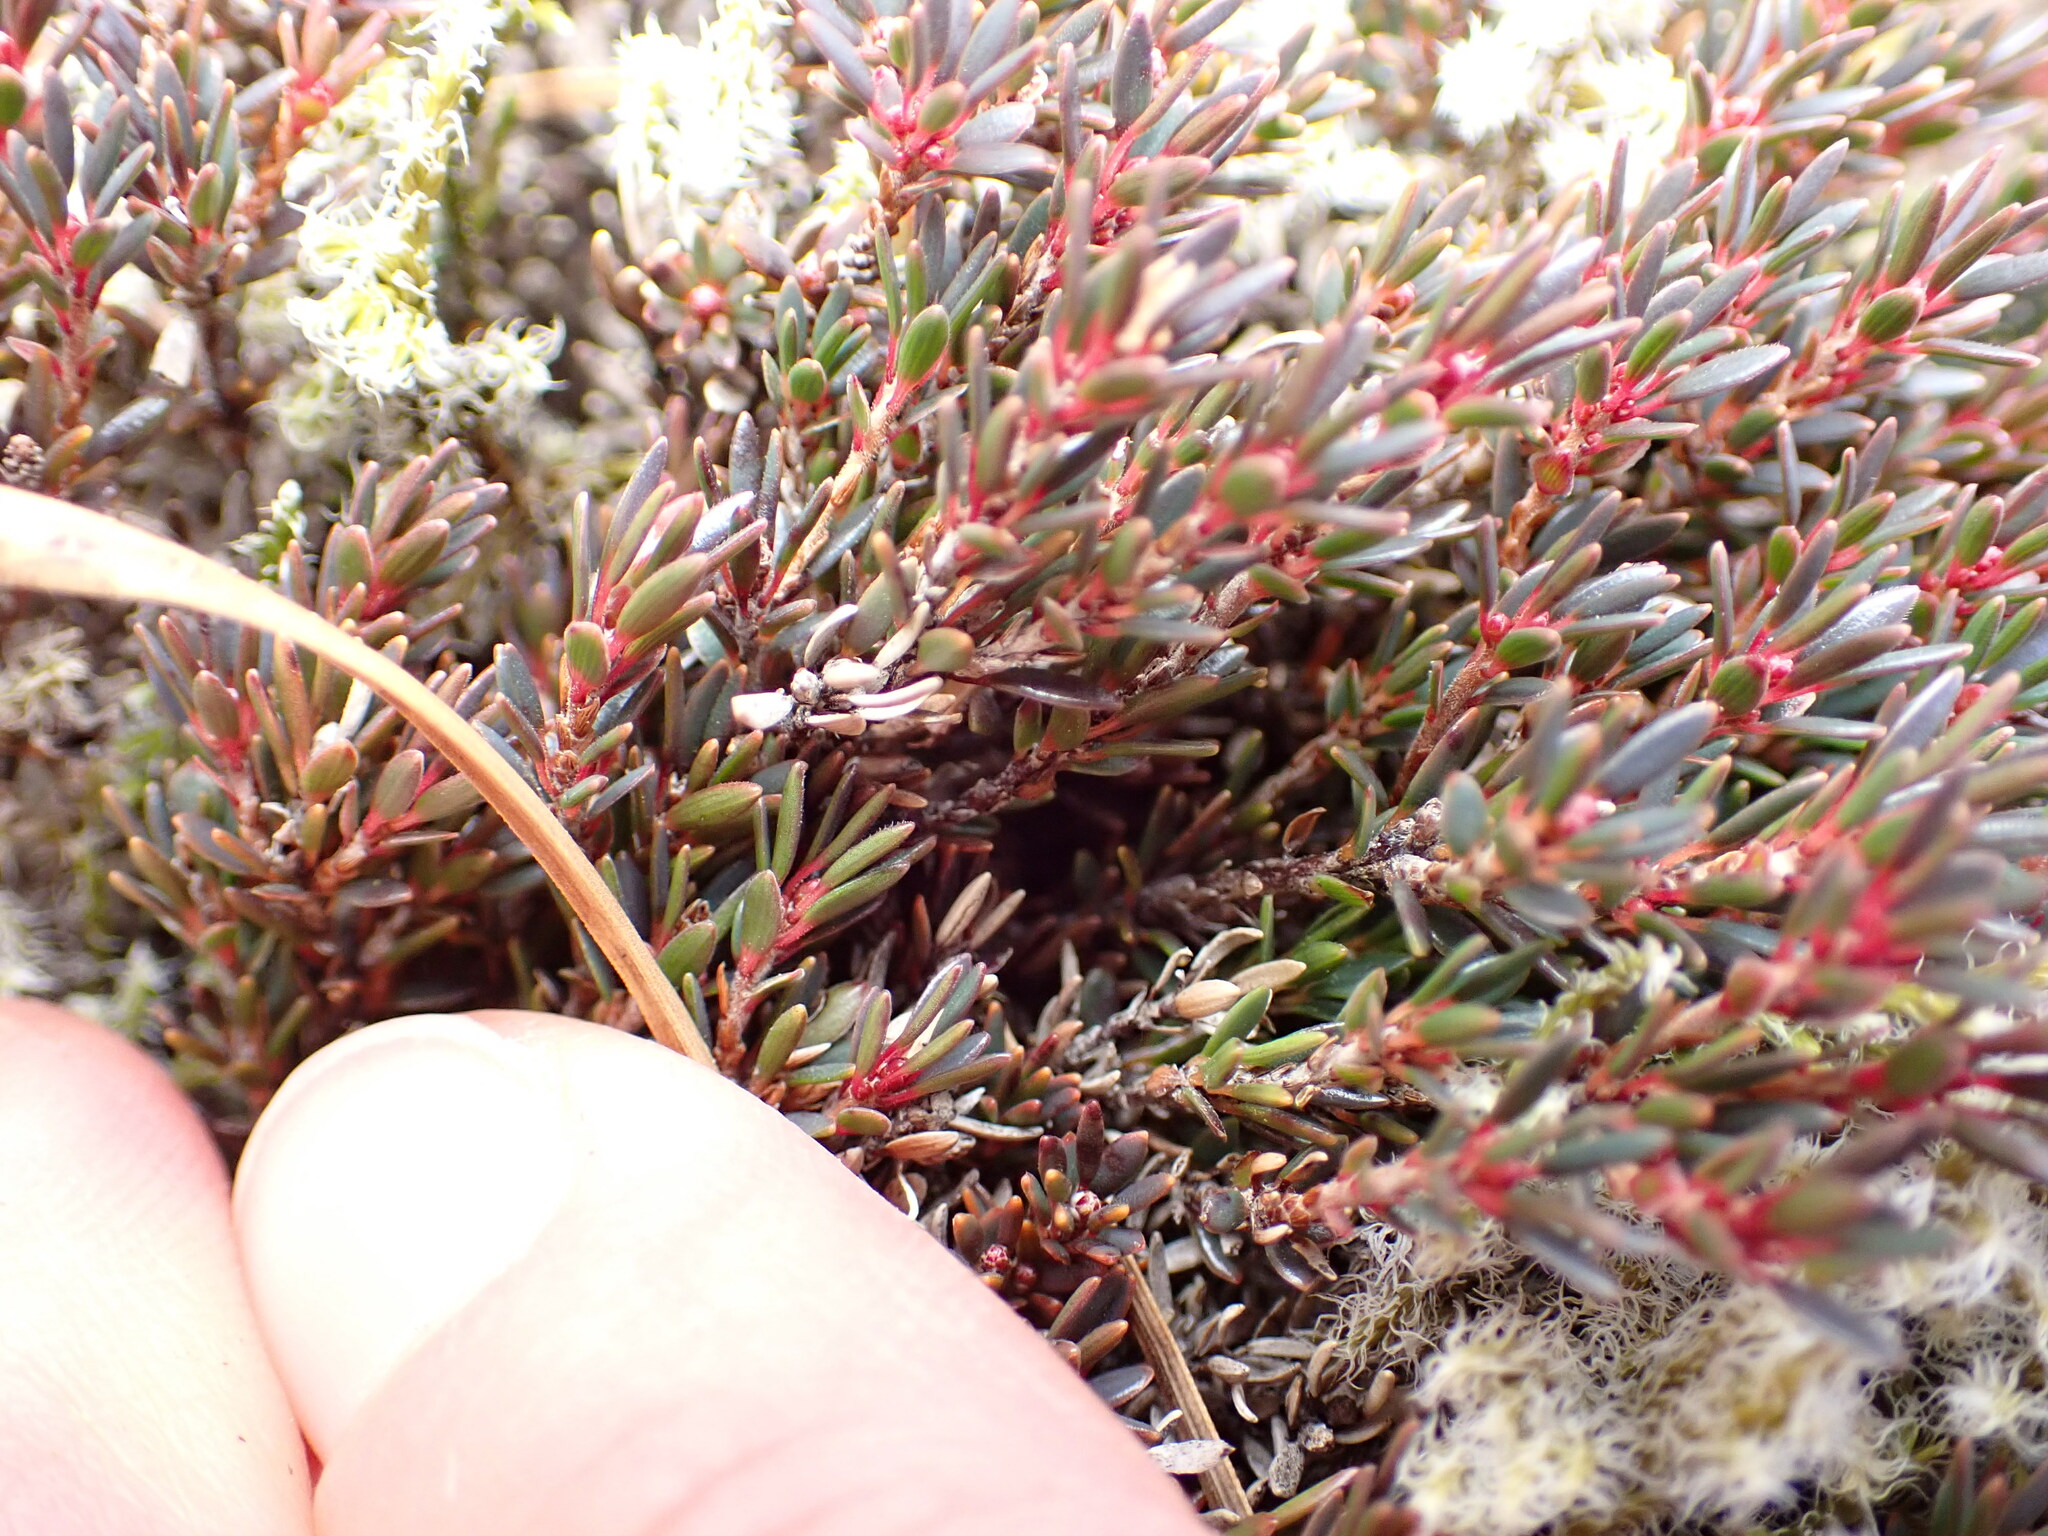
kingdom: Plantae
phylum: Tracheophyta
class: Magnoliopsida
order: Ericales
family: Ericaceae
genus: Pentachondra
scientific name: Pentachondra pumila
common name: Carpet-heath
